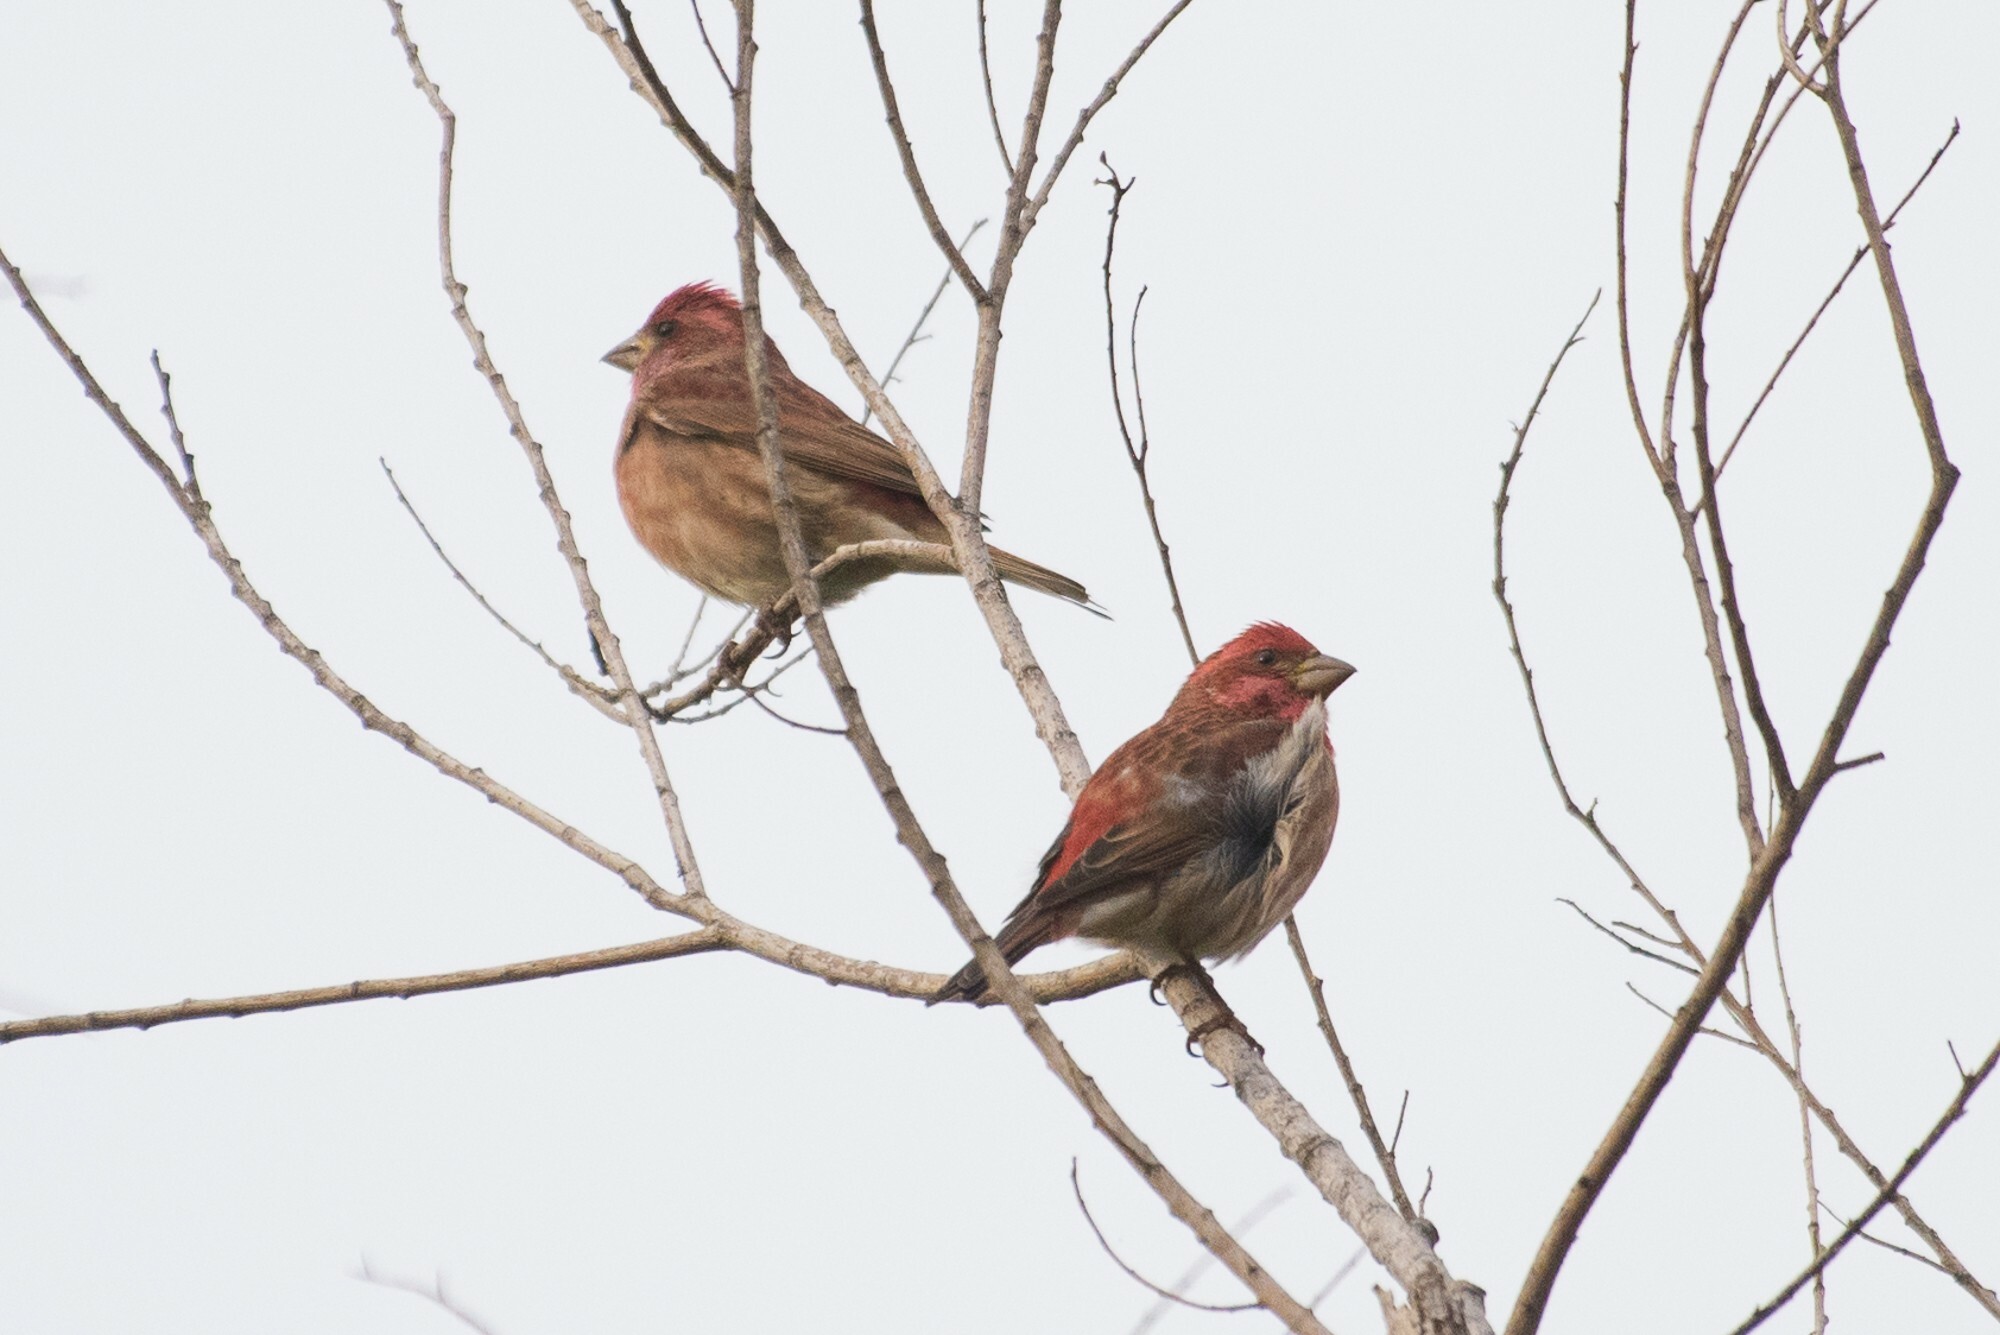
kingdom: Animalia
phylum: Chordata
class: Aves
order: Passeriformes
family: Fringillidae
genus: Haemorhous
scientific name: Haemorhous purpureus
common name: Purple finch
